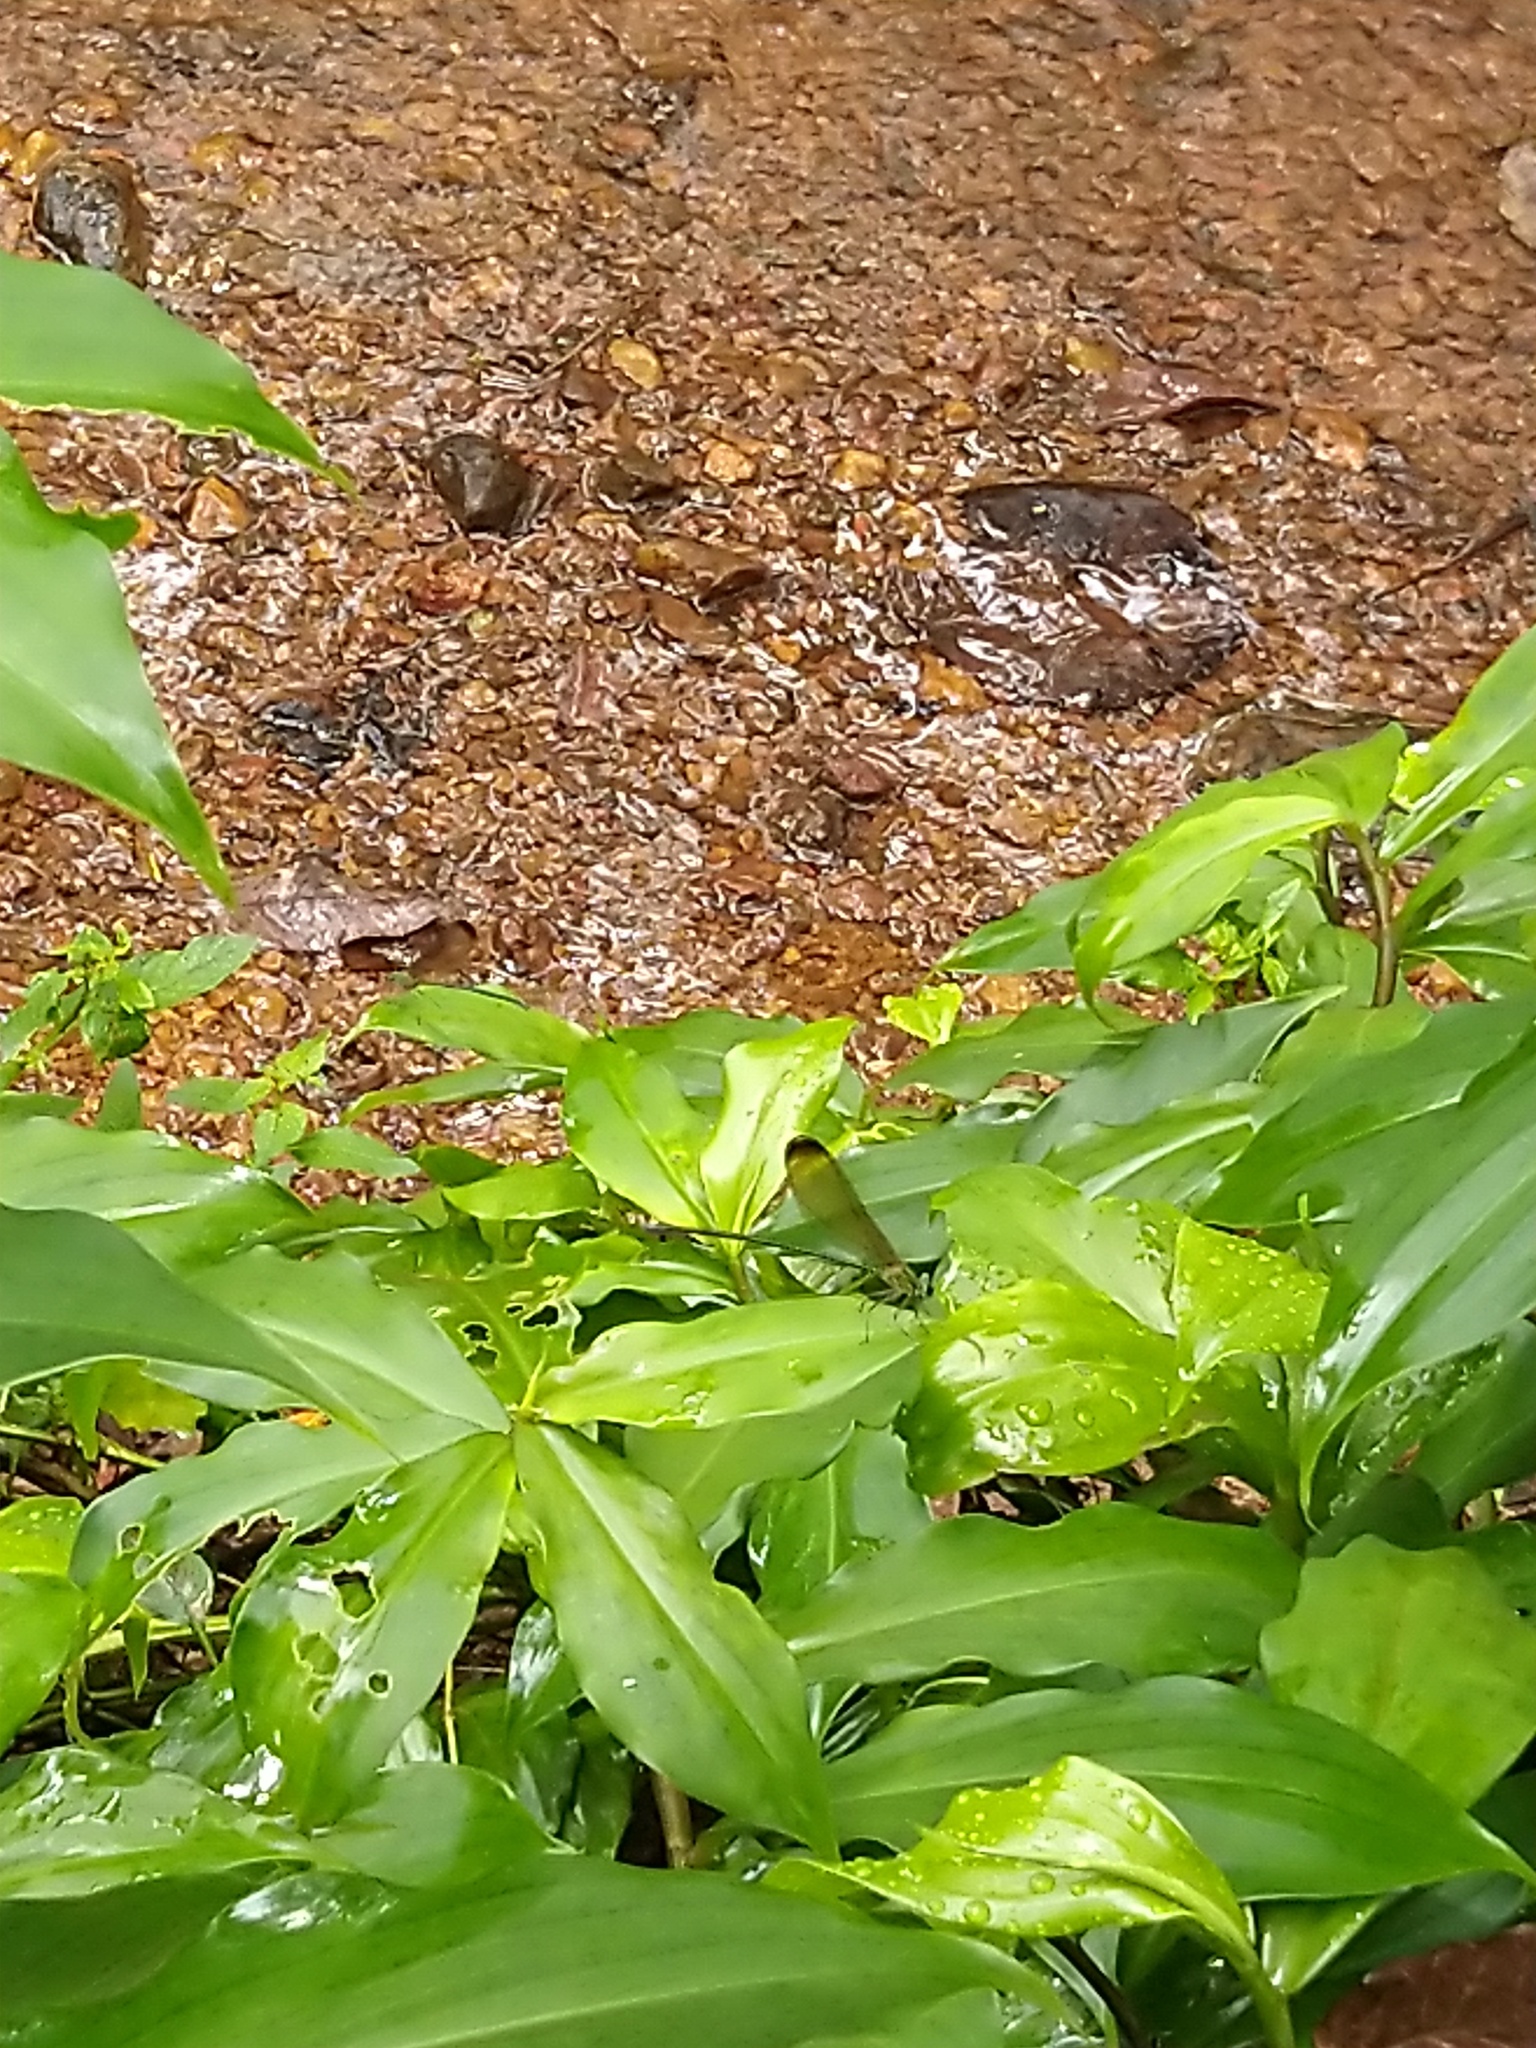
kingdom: Animalia
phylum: Arthropoda
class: Insecta
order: Odonata
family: Calopterygidae
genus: Vestalis
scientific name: Vestalis apicalis
